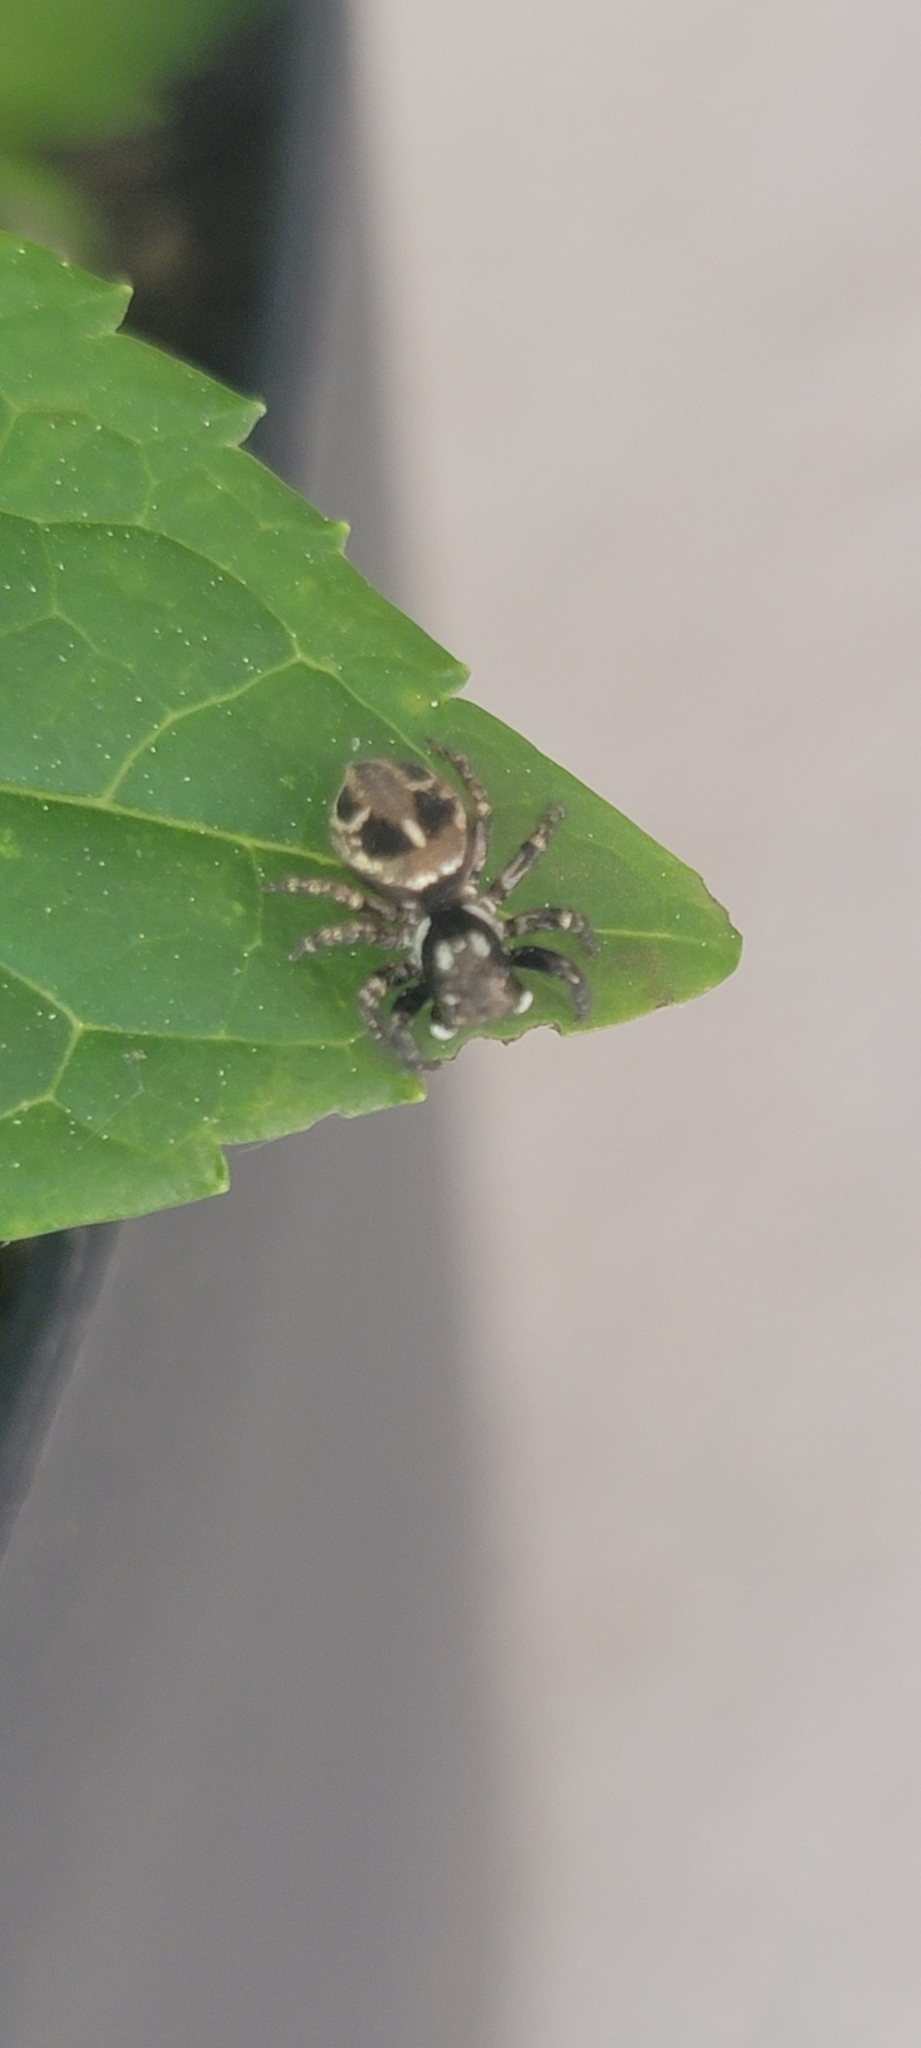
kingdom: Animalia
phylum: Arthropoda
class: Arachnida
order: Araneae
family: Salticidae
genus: Anasaitis
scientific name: Anasaitis canosa
